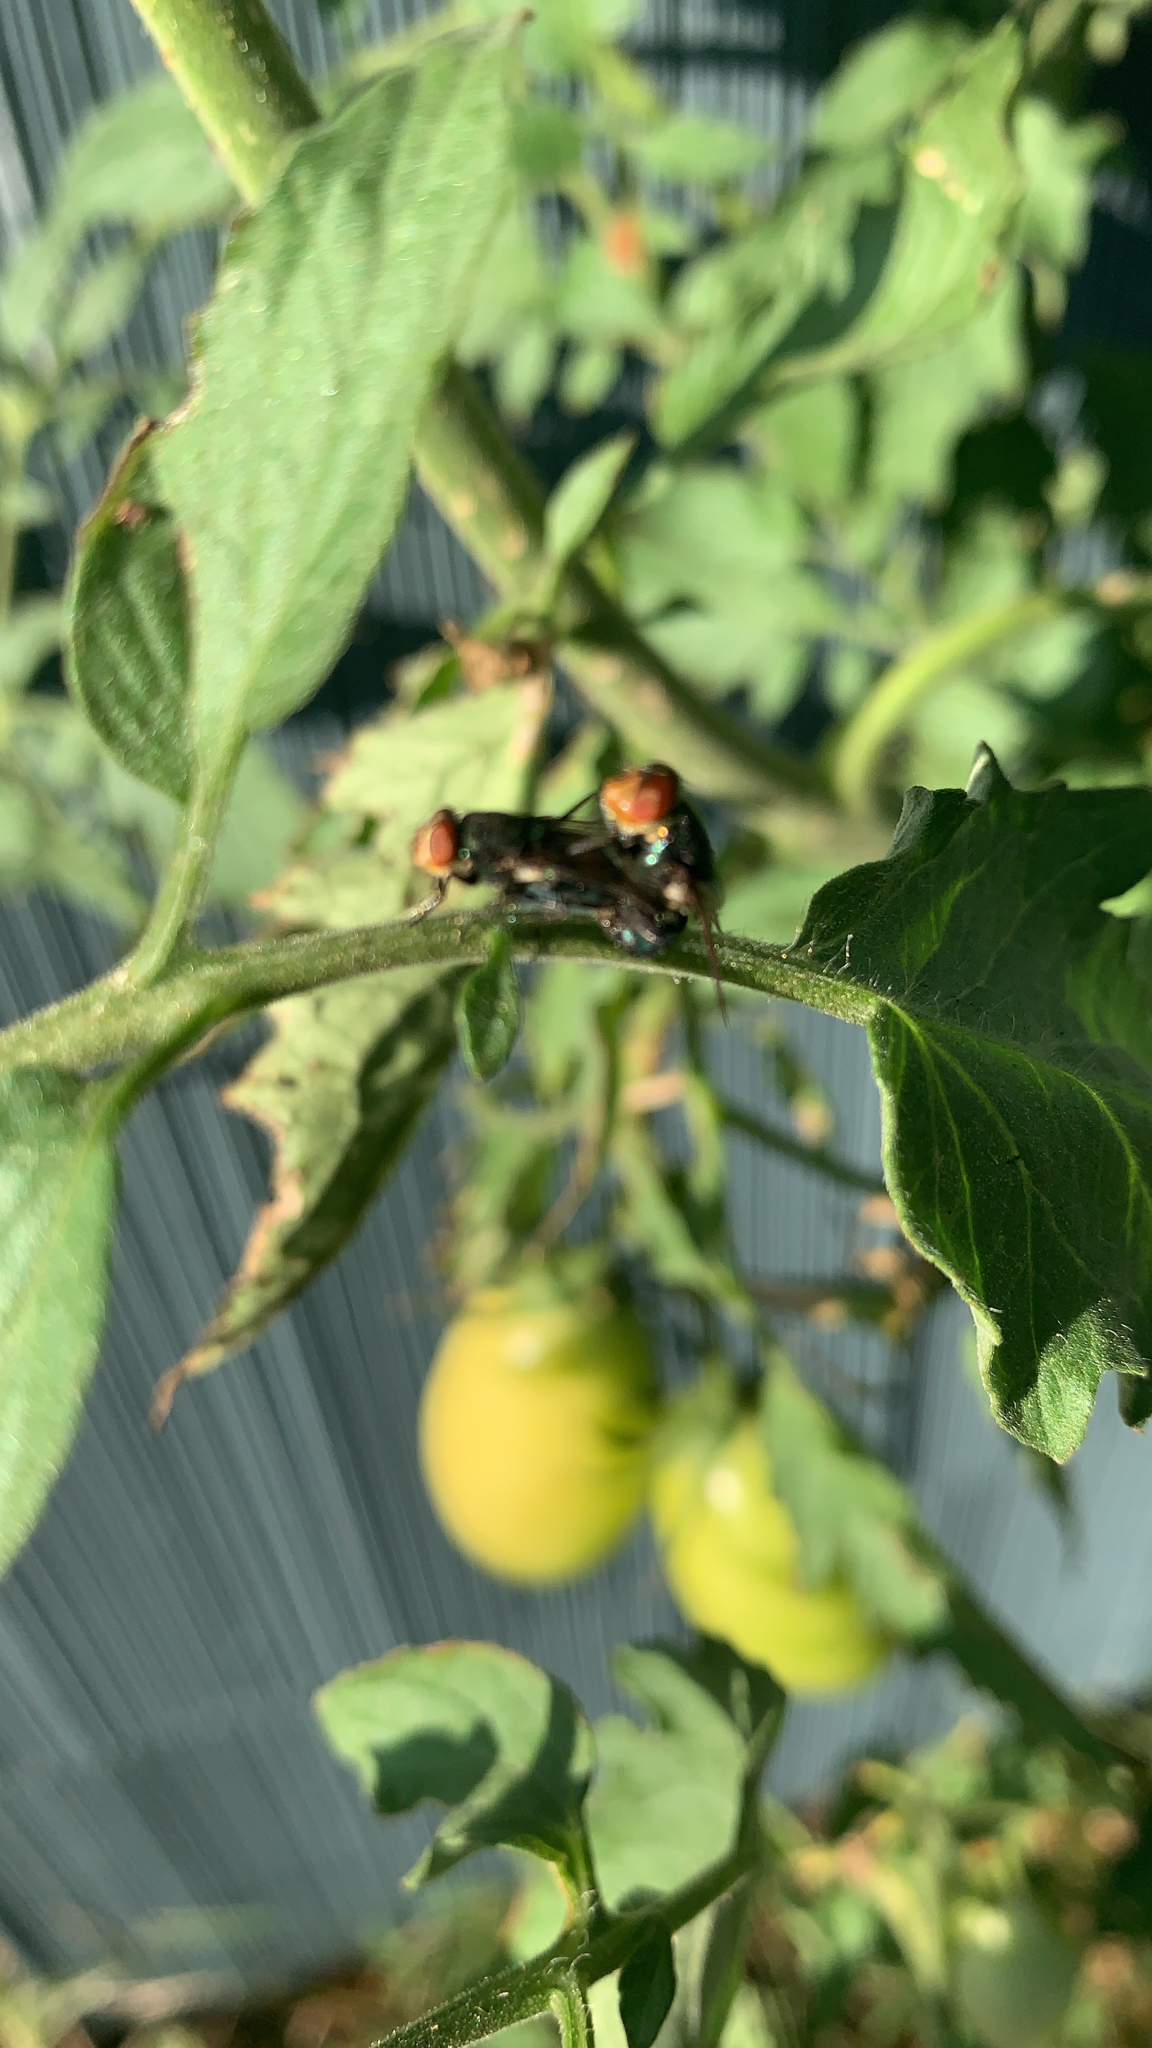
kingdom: Animalia
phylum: Arthropoda
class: Insecta
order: Diptera
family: Calliphoridae
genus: Cochliomyia
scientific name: Cochliomyia macellaria
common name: Secondary screwworm
